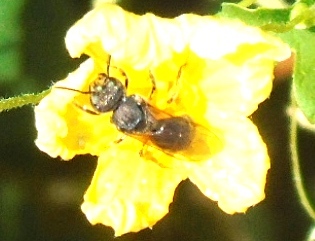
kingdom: Animalia
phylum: Arthropoda
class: Insecta
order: Hymenoptera
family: Halictidae
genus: Augochlora
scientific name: Augochlora
